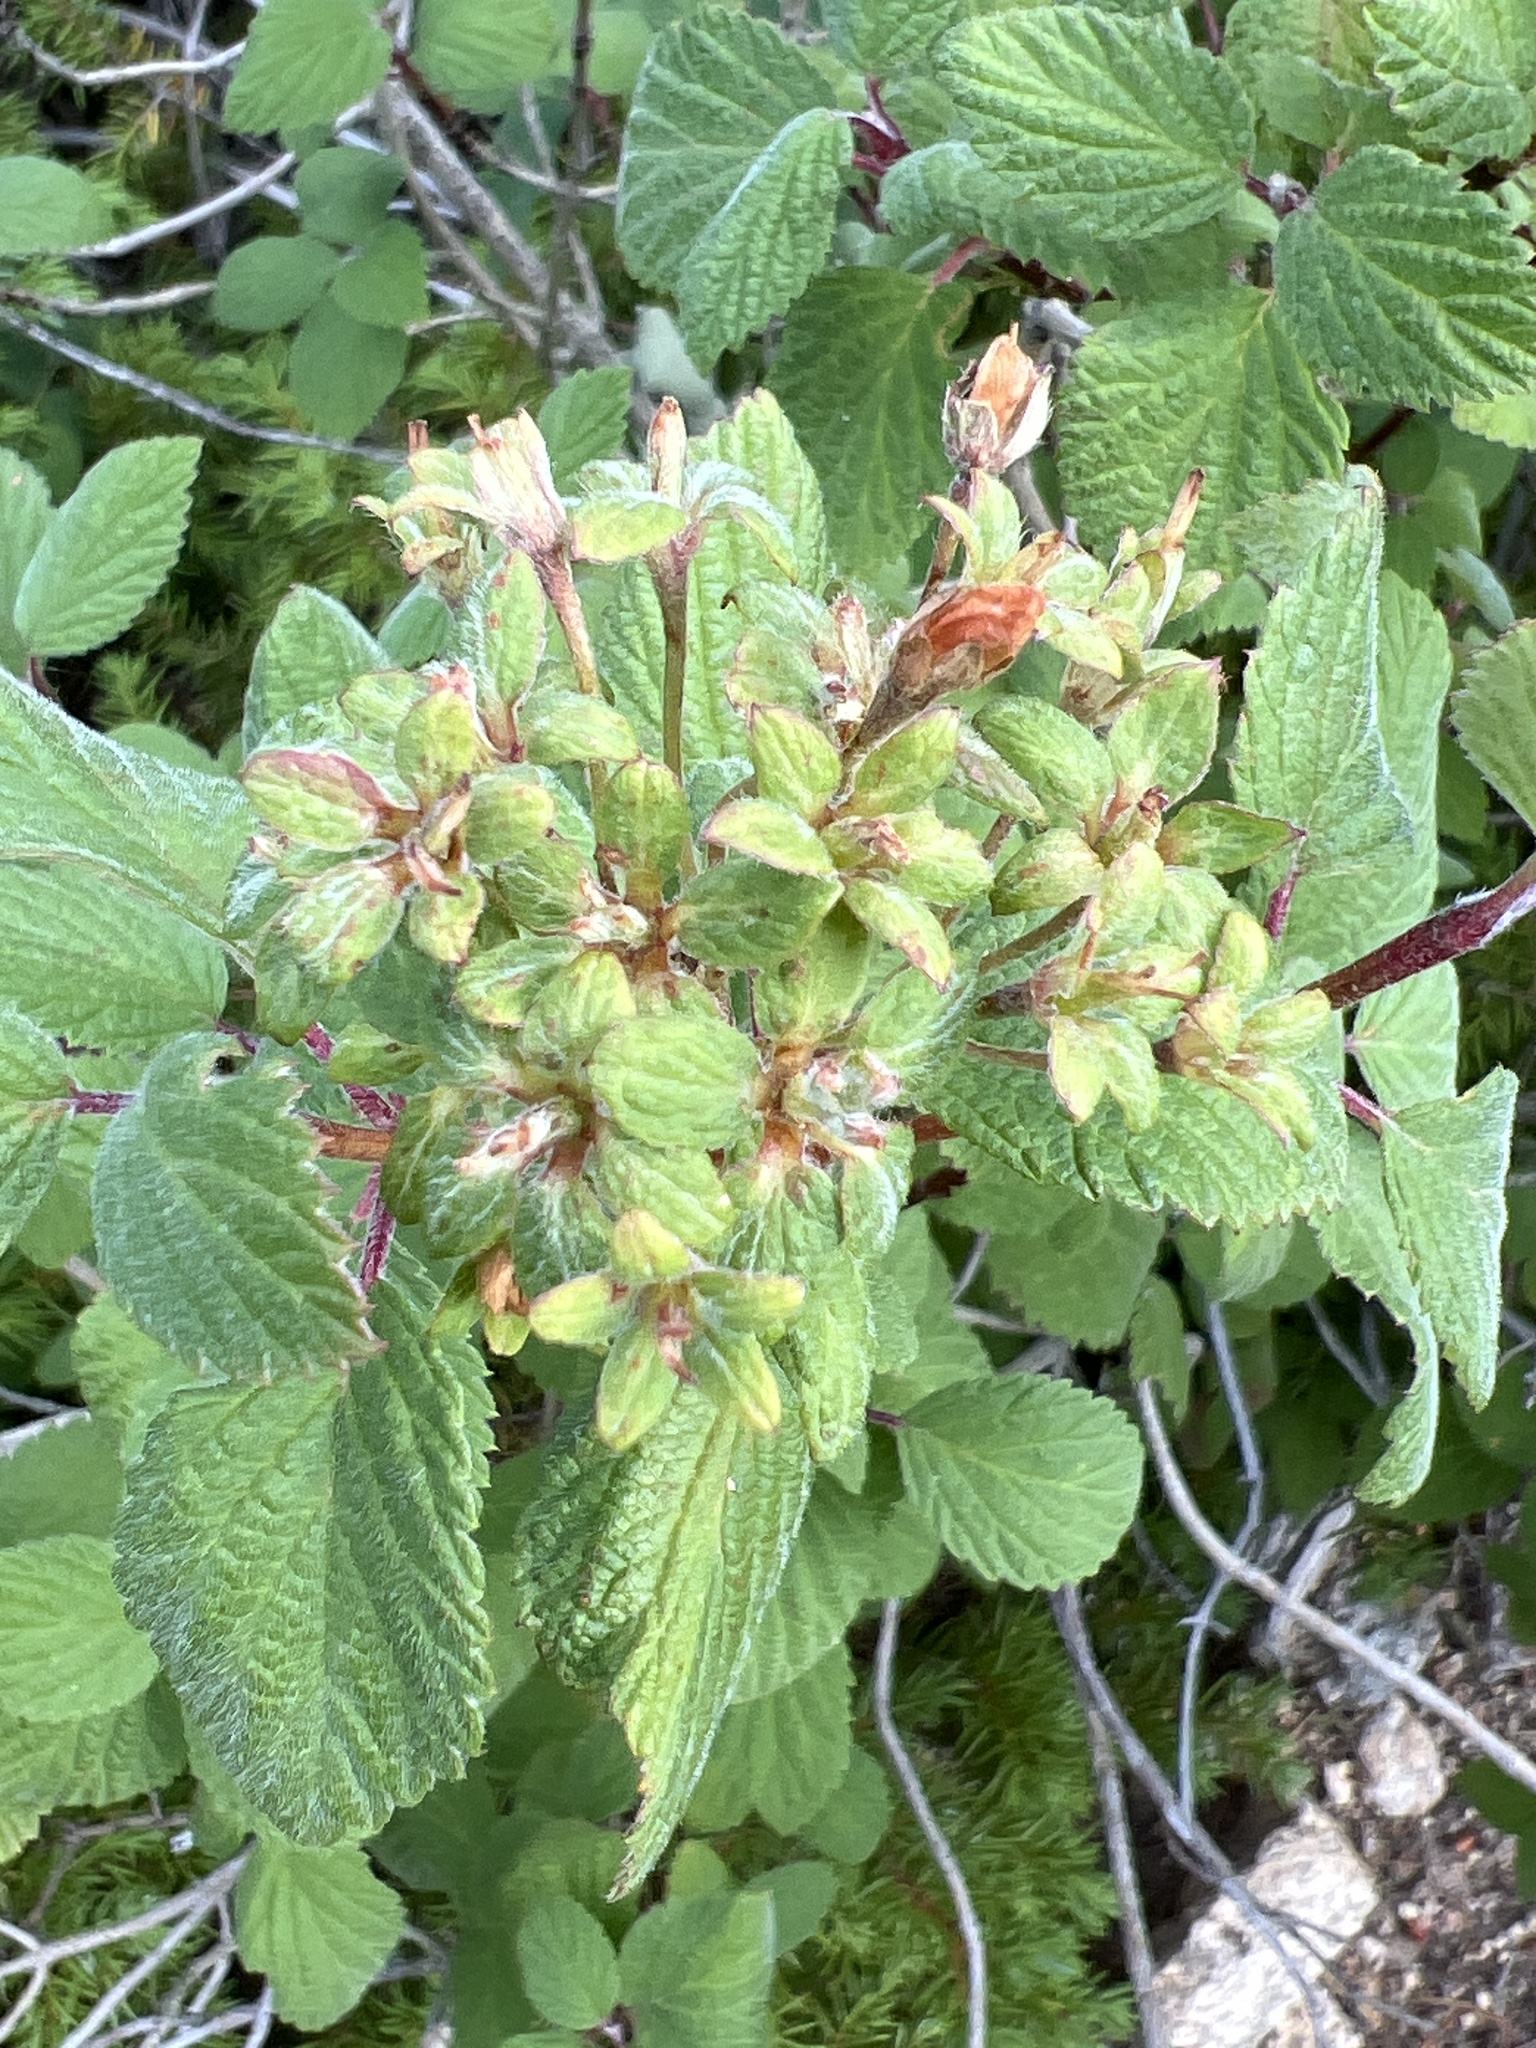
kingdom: Plantae
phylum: Tracheophyta
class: Magnoliopsida
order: Cornales
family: Hydrangeaceae
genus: Jamesia
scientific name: Jamesia americana
